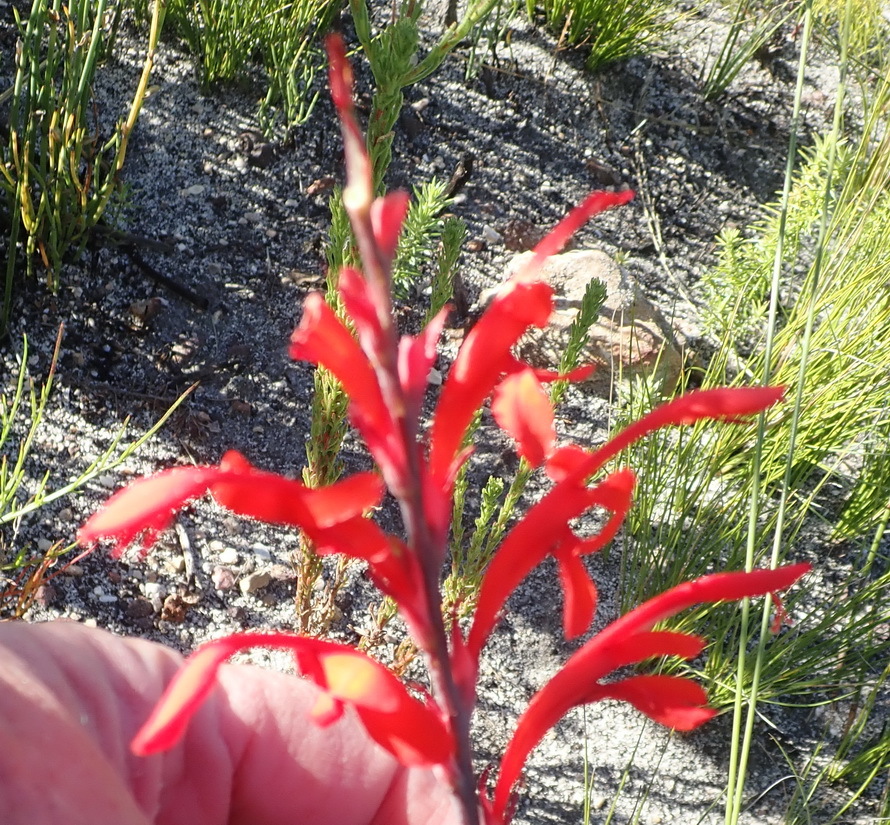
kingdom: Plantae
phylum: Tracheophyta
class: Liliopsida
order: Asparagales
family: Iridaceae
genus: Tritoniopsis
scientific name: Tritoniopsis caffra
